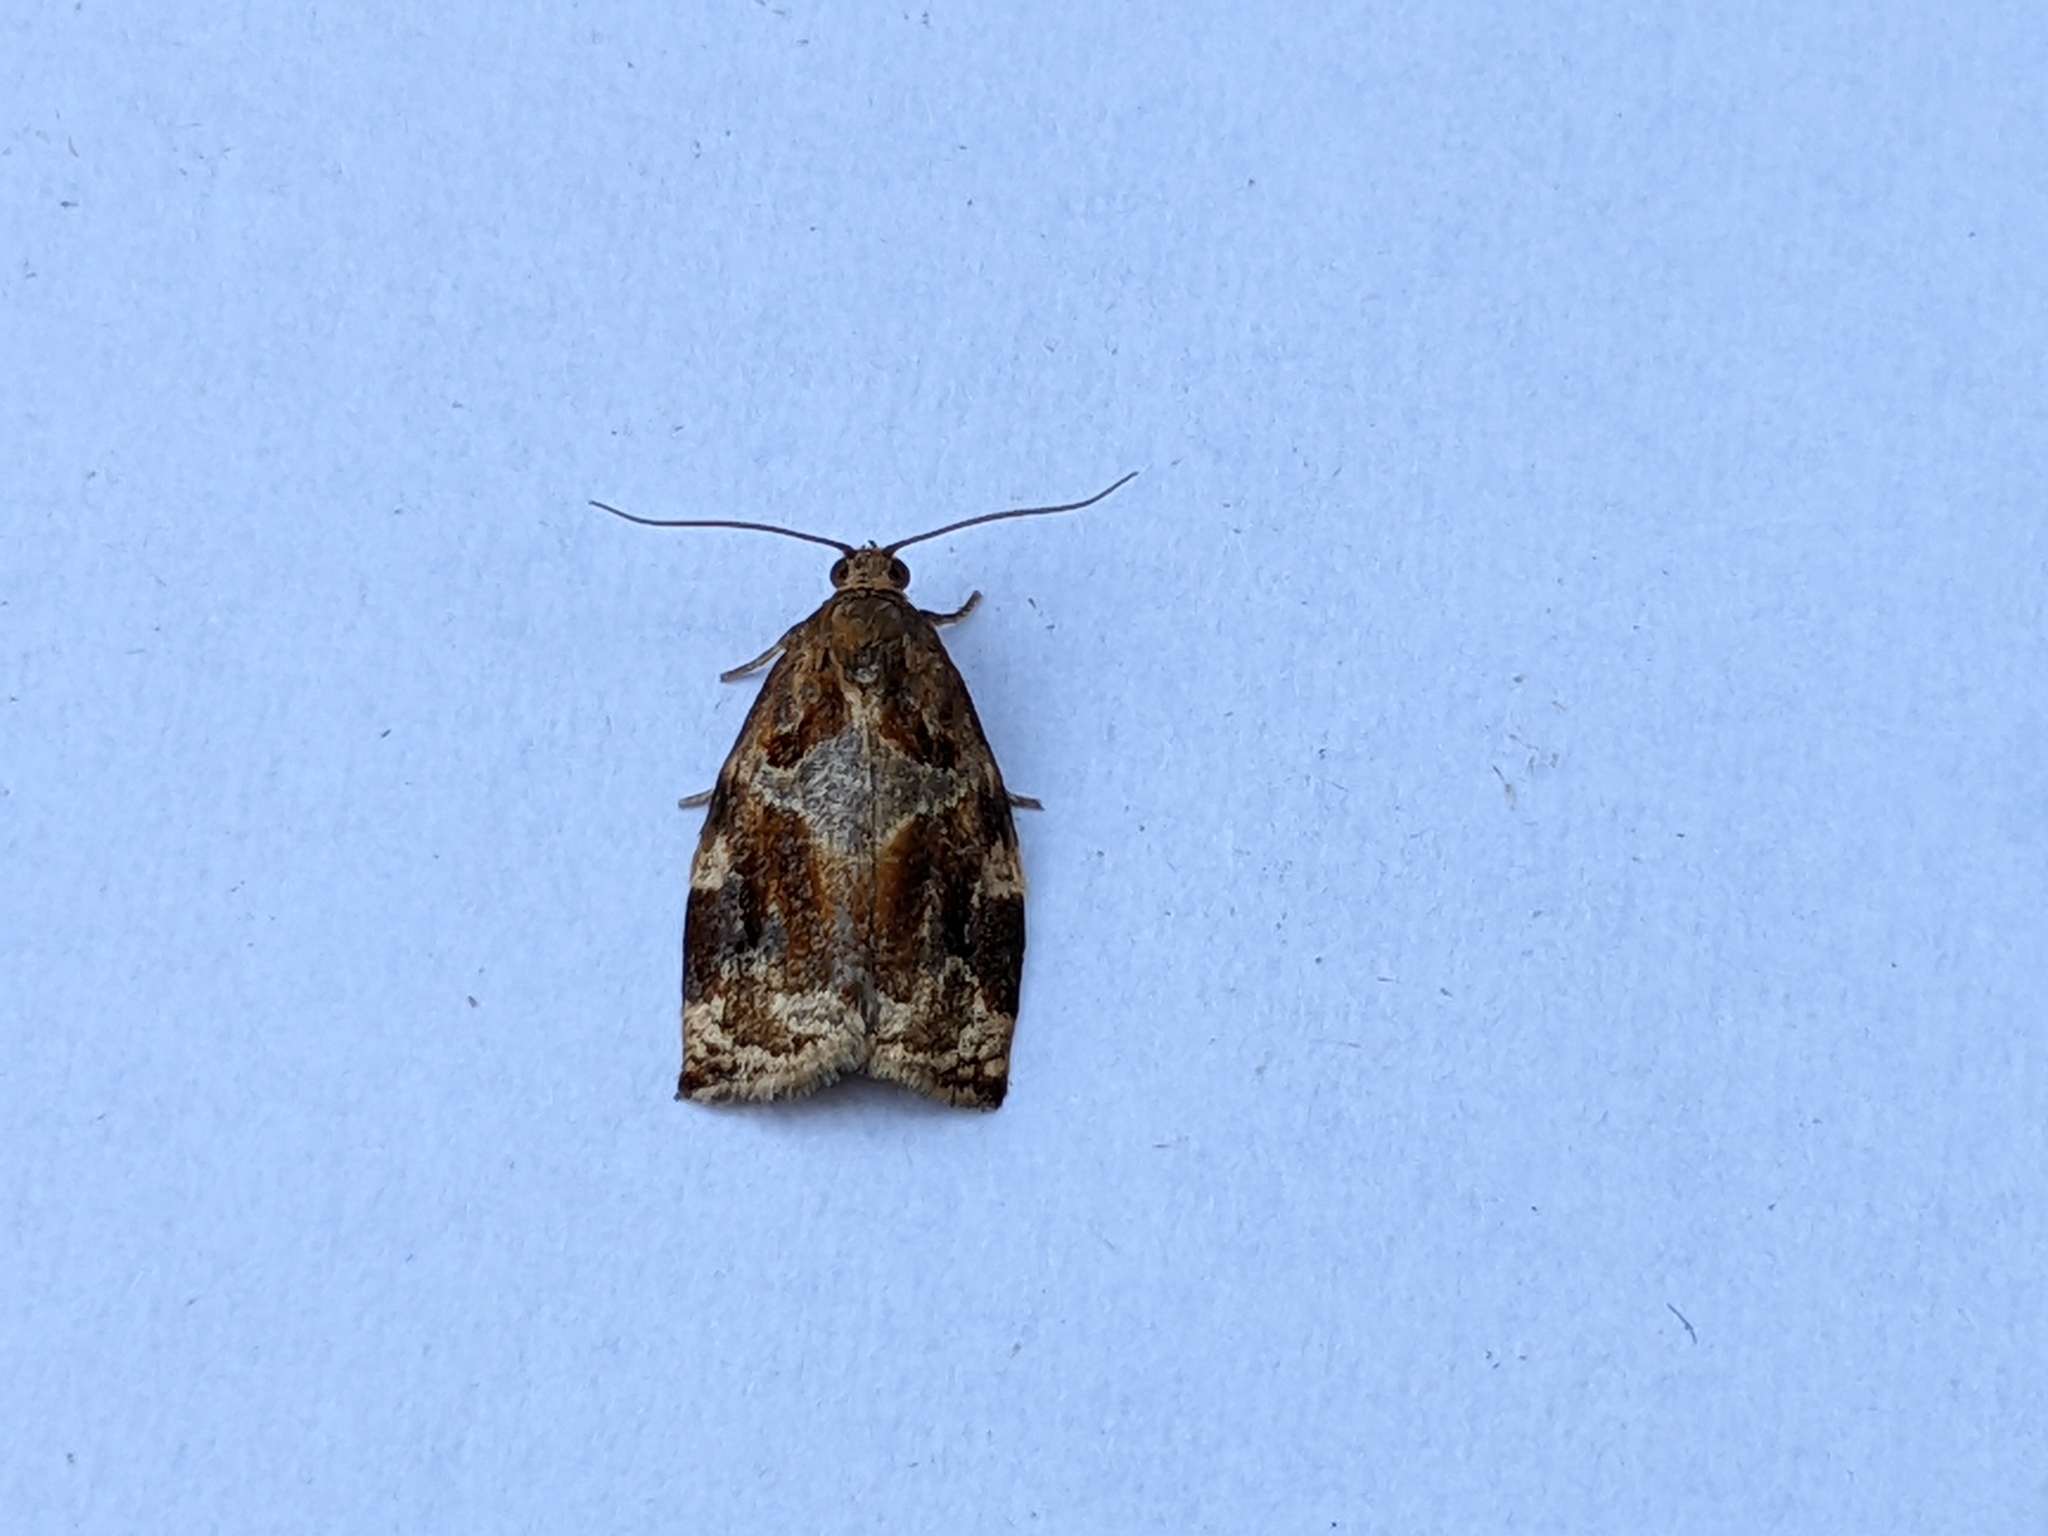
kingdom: Animalia
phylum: Arthropoda
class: Insecta
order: Lepidoptera
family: Tortricidae
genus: Archips
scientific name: Archips xylosteana
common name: Variegated golden tortrix
